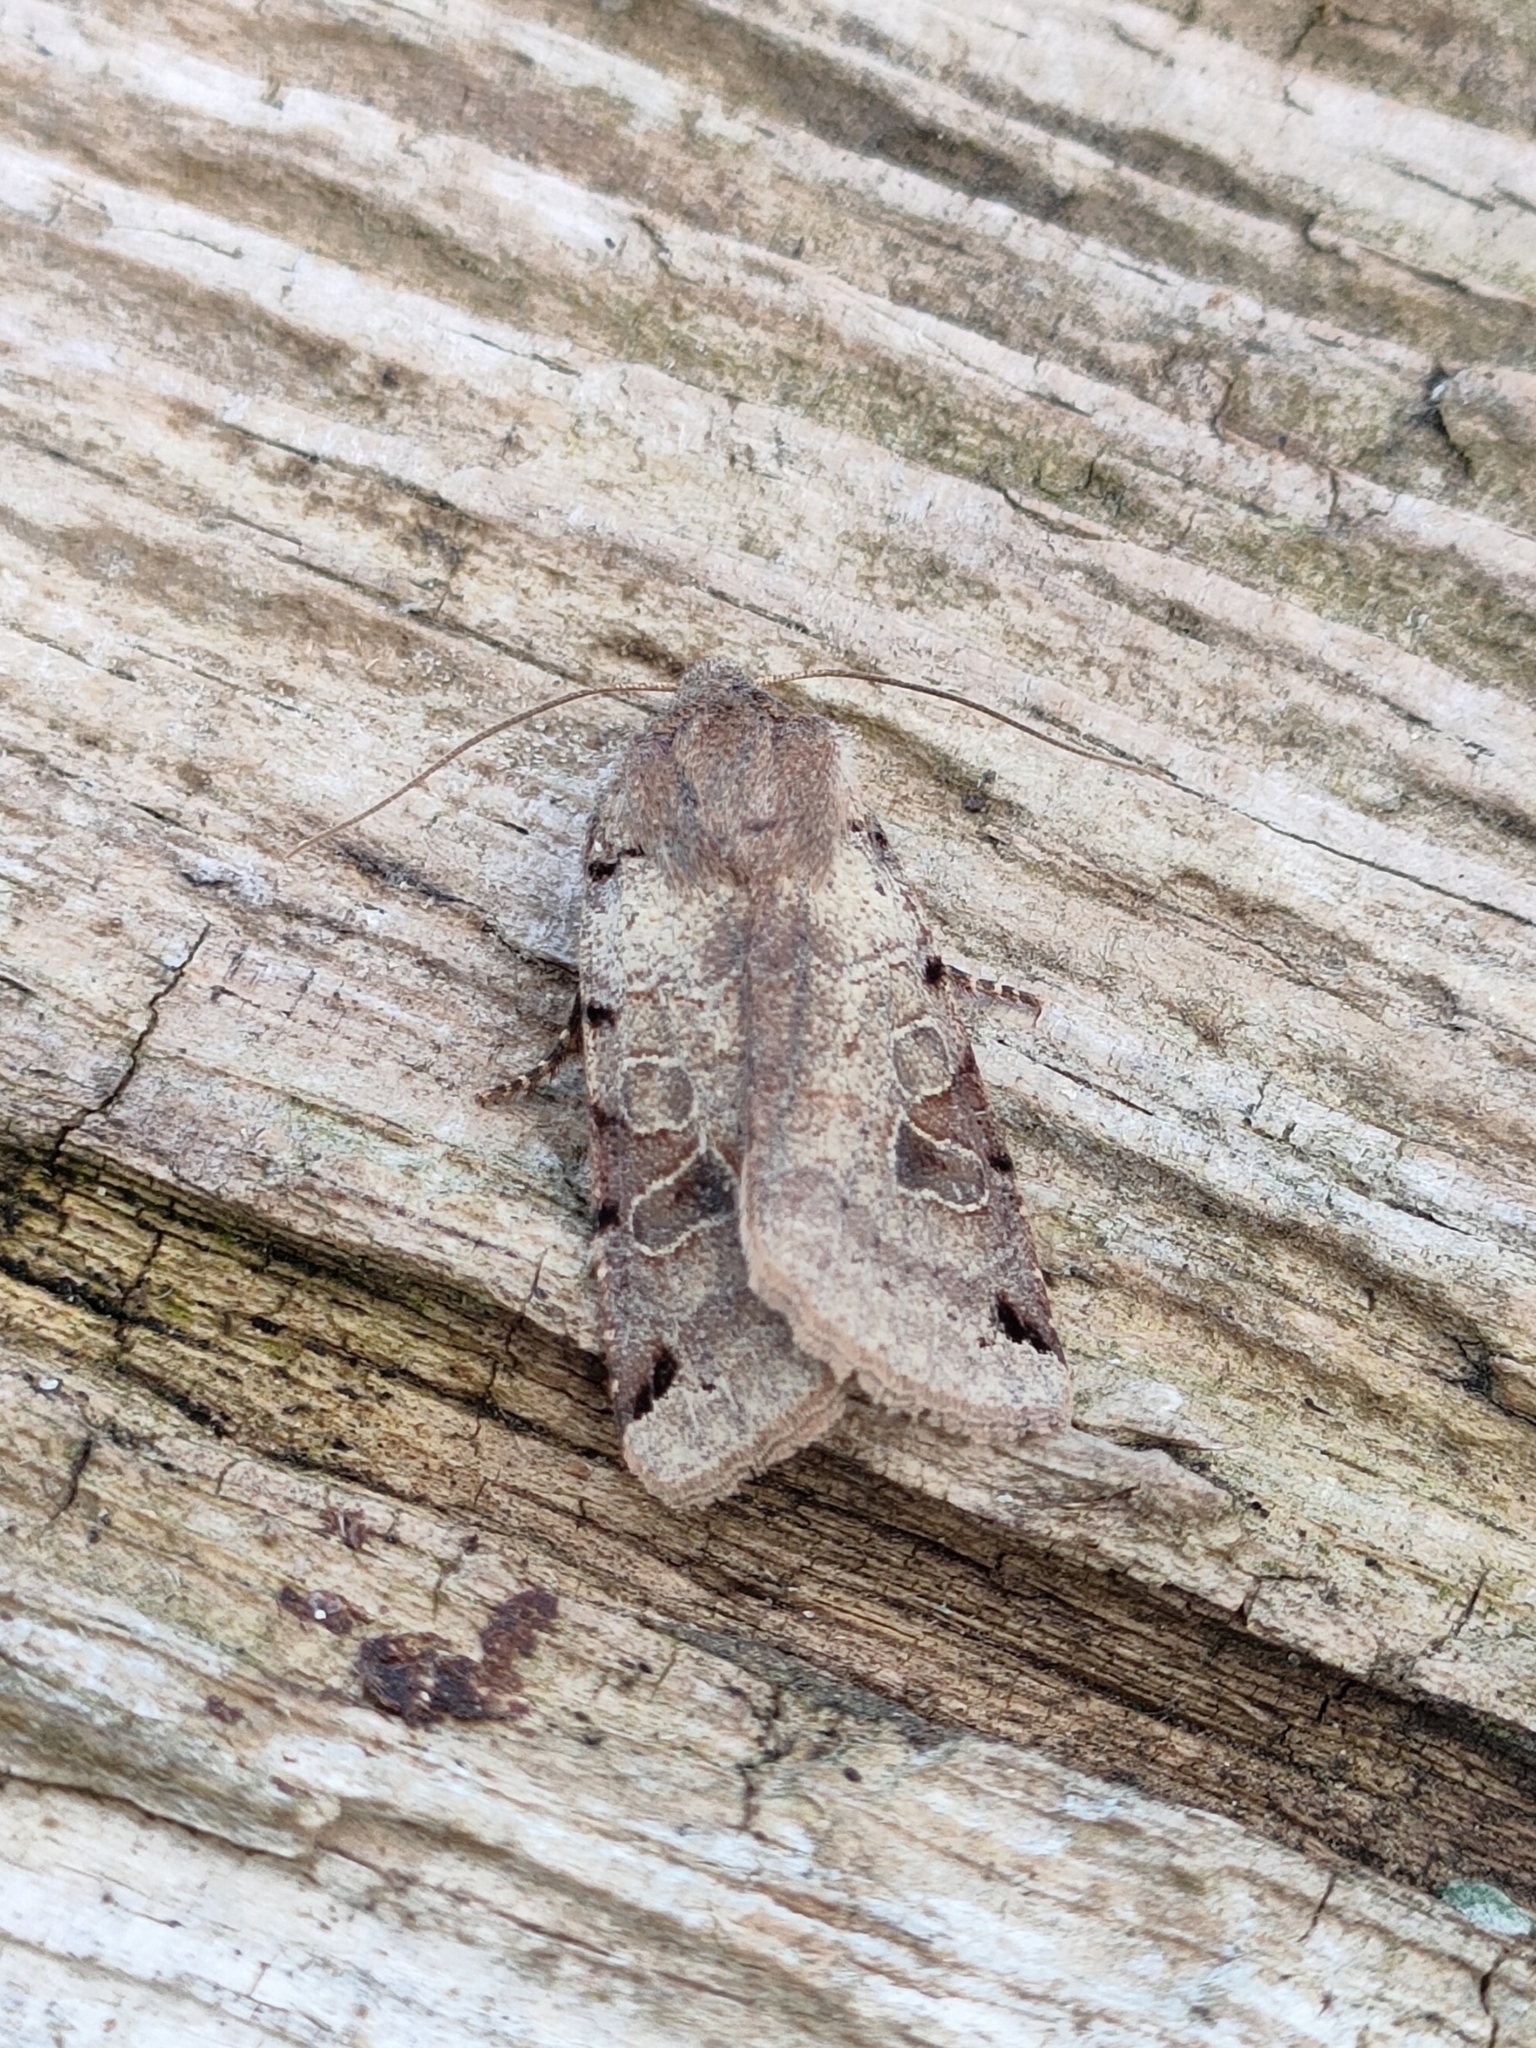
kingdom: Animalia
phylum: Arthropoda
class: Insecta
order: Lepidoptera
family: Noctuidae
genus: Agrochola
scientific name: Agrochola litura
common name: Brown-spot pinion
